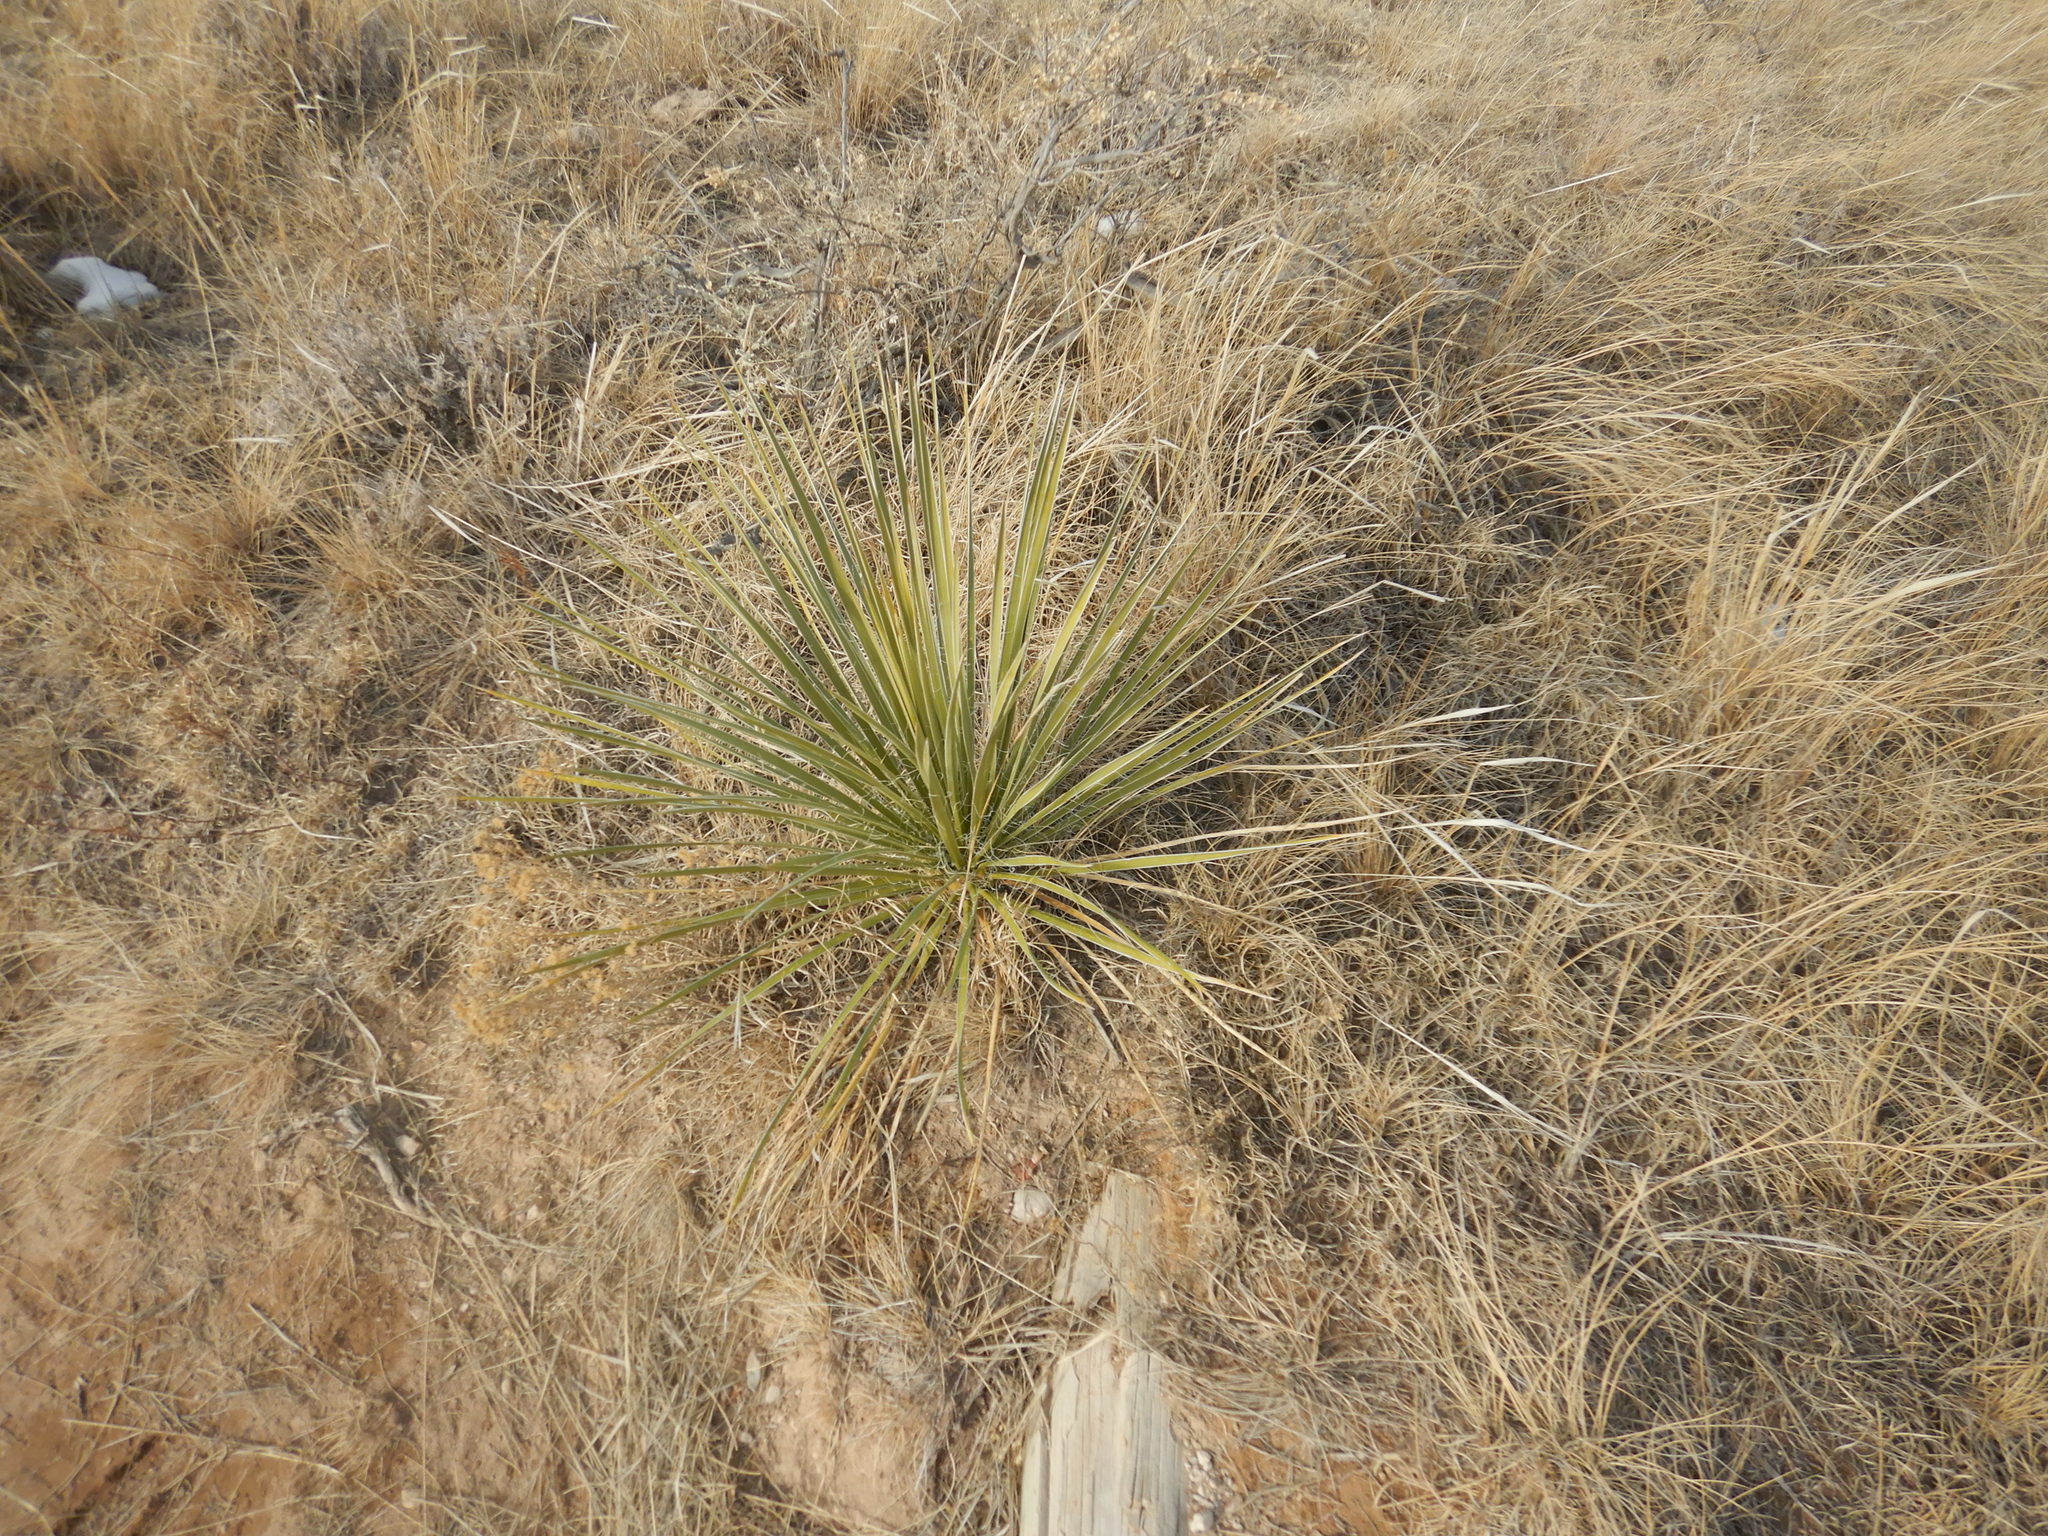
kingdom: Plantae
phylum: Tracheophyta
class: Liliopsida
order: Asparagales
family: Asparagaceae
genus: Yucca
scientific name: Yucca glauca
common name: Great plains yucca
